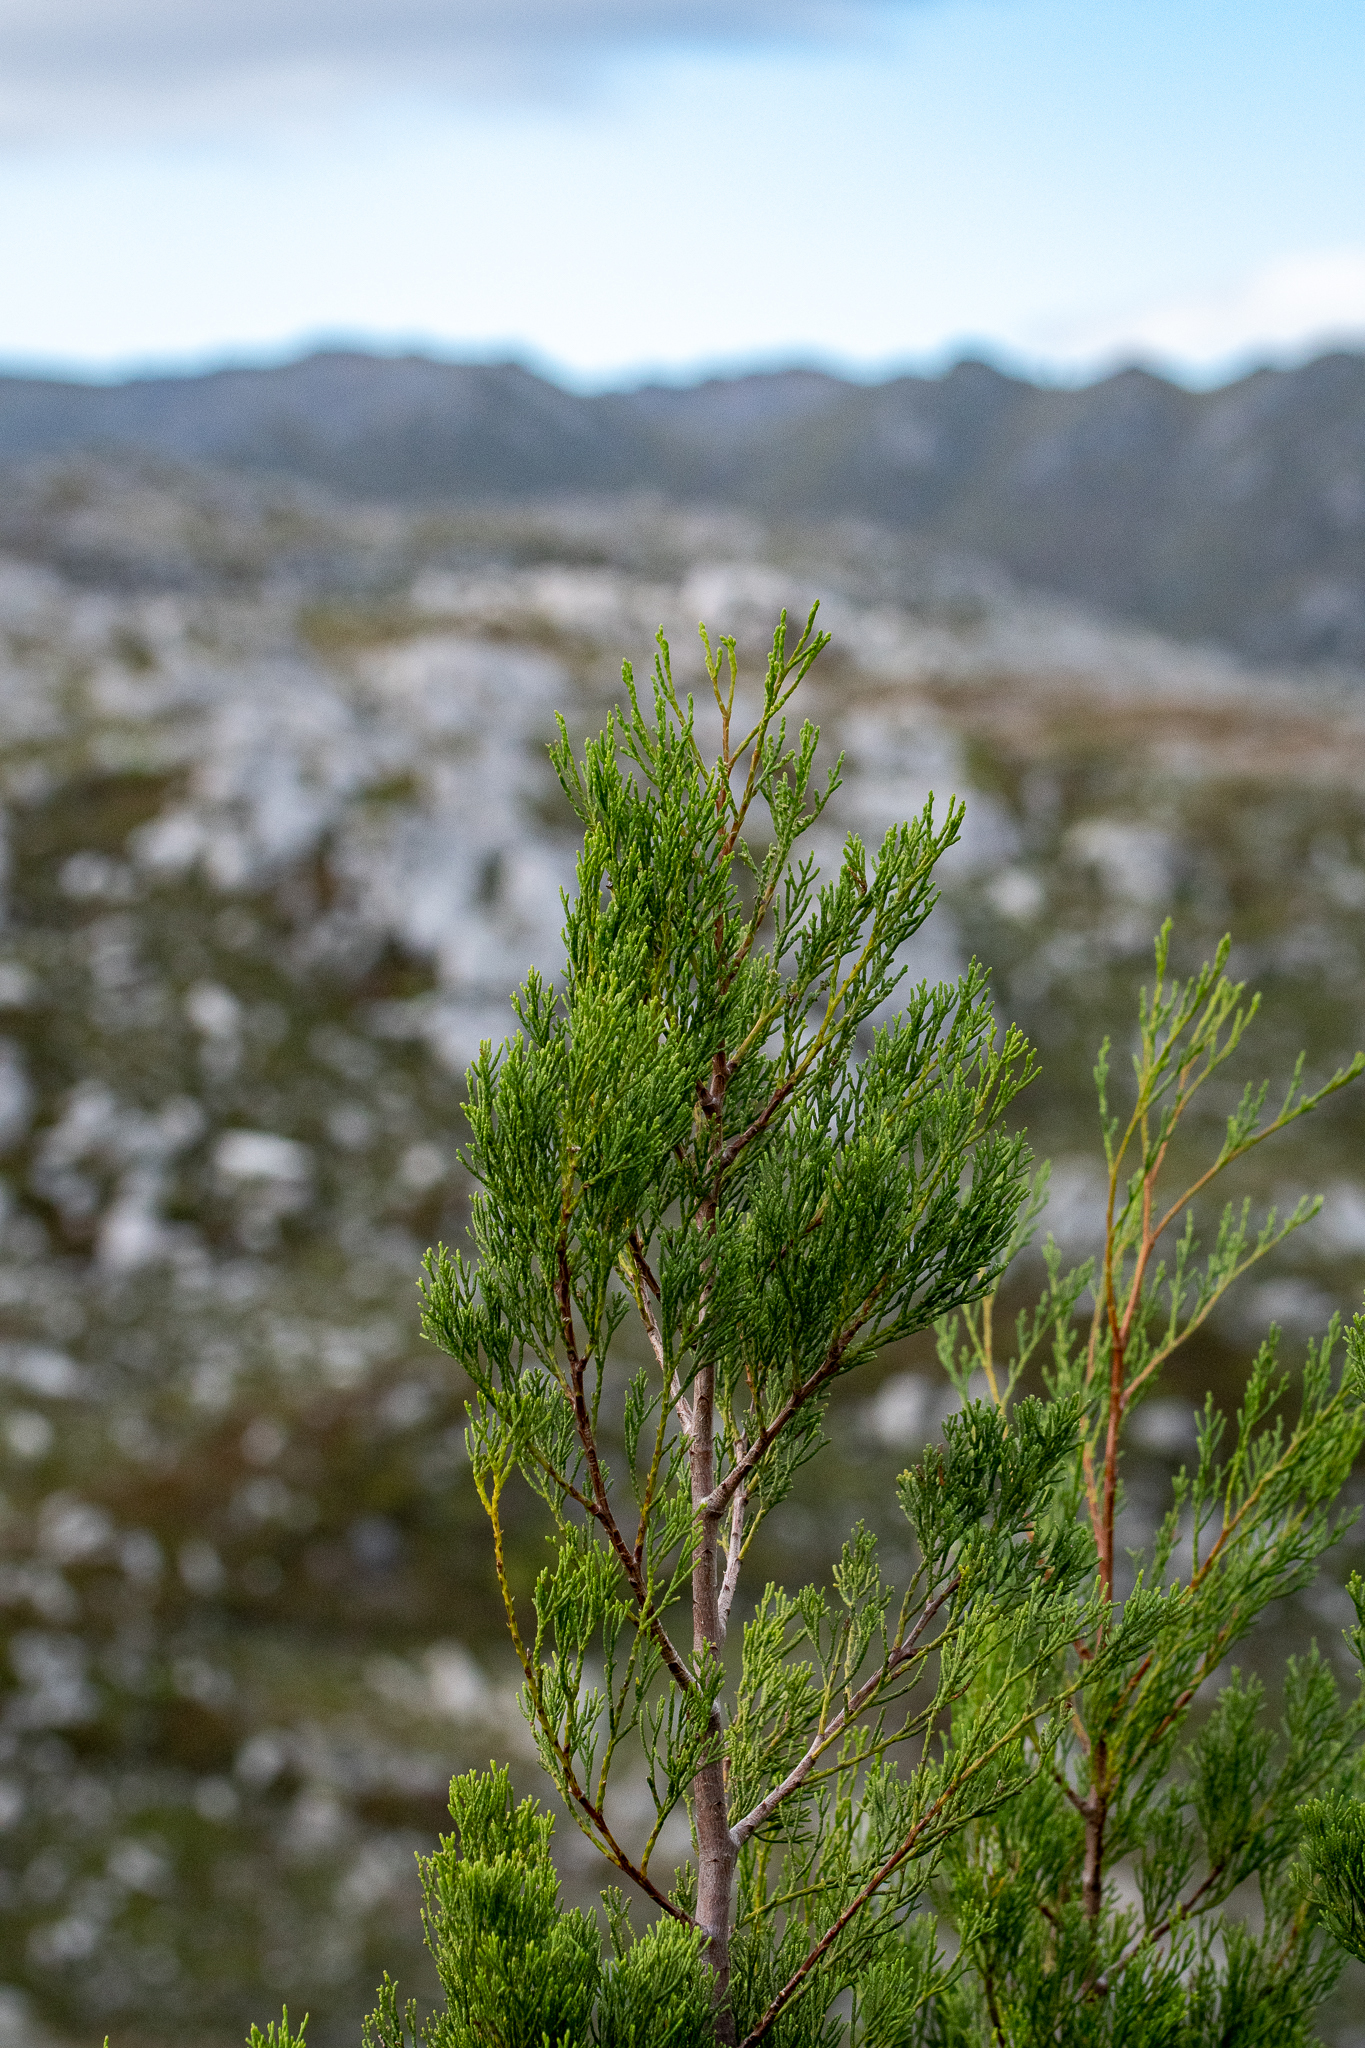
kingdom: Plantae
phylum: Tracheophyta
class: Pinopsida
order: Pinales
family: Cupressaceae
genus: Widdringtonia
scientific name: Widdringtonia nodiflora
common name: Cape cypress
